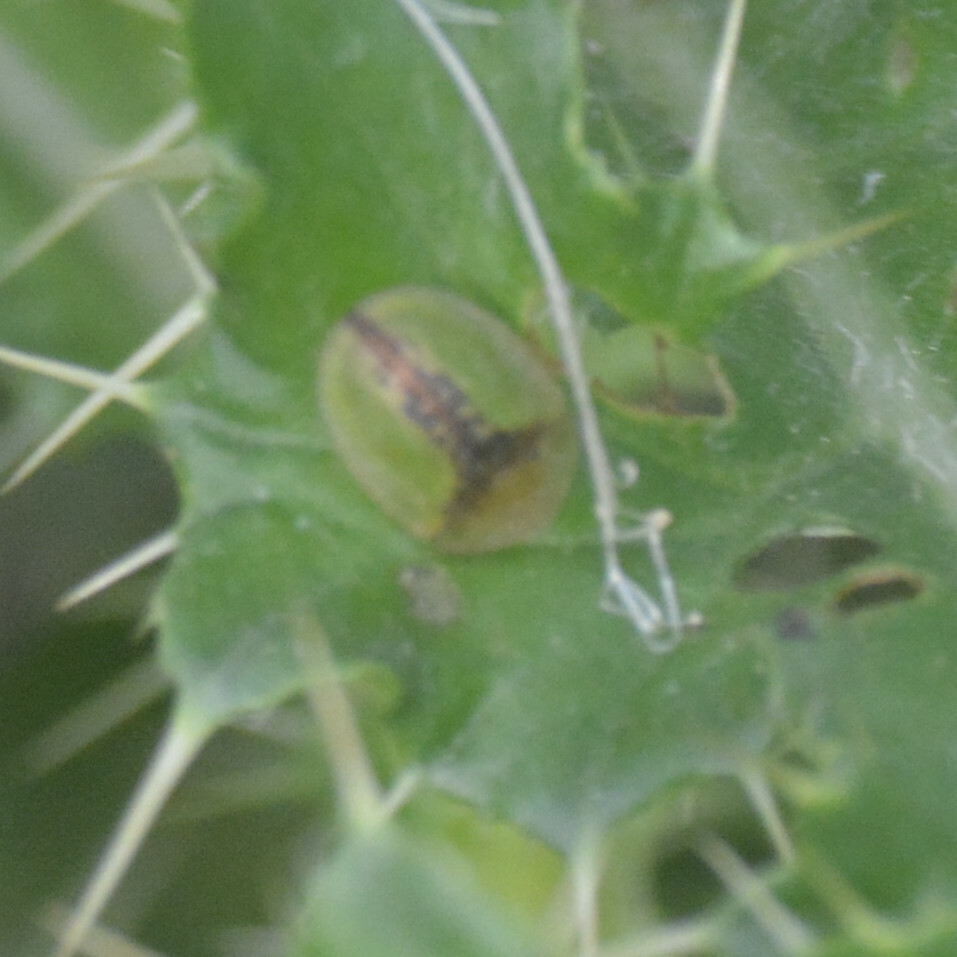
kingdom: Animalia
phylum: Arthropoda
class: Insecta
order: Coleoptera
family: Chrysomelidae
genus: Cassida
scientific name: Cassida vibex
